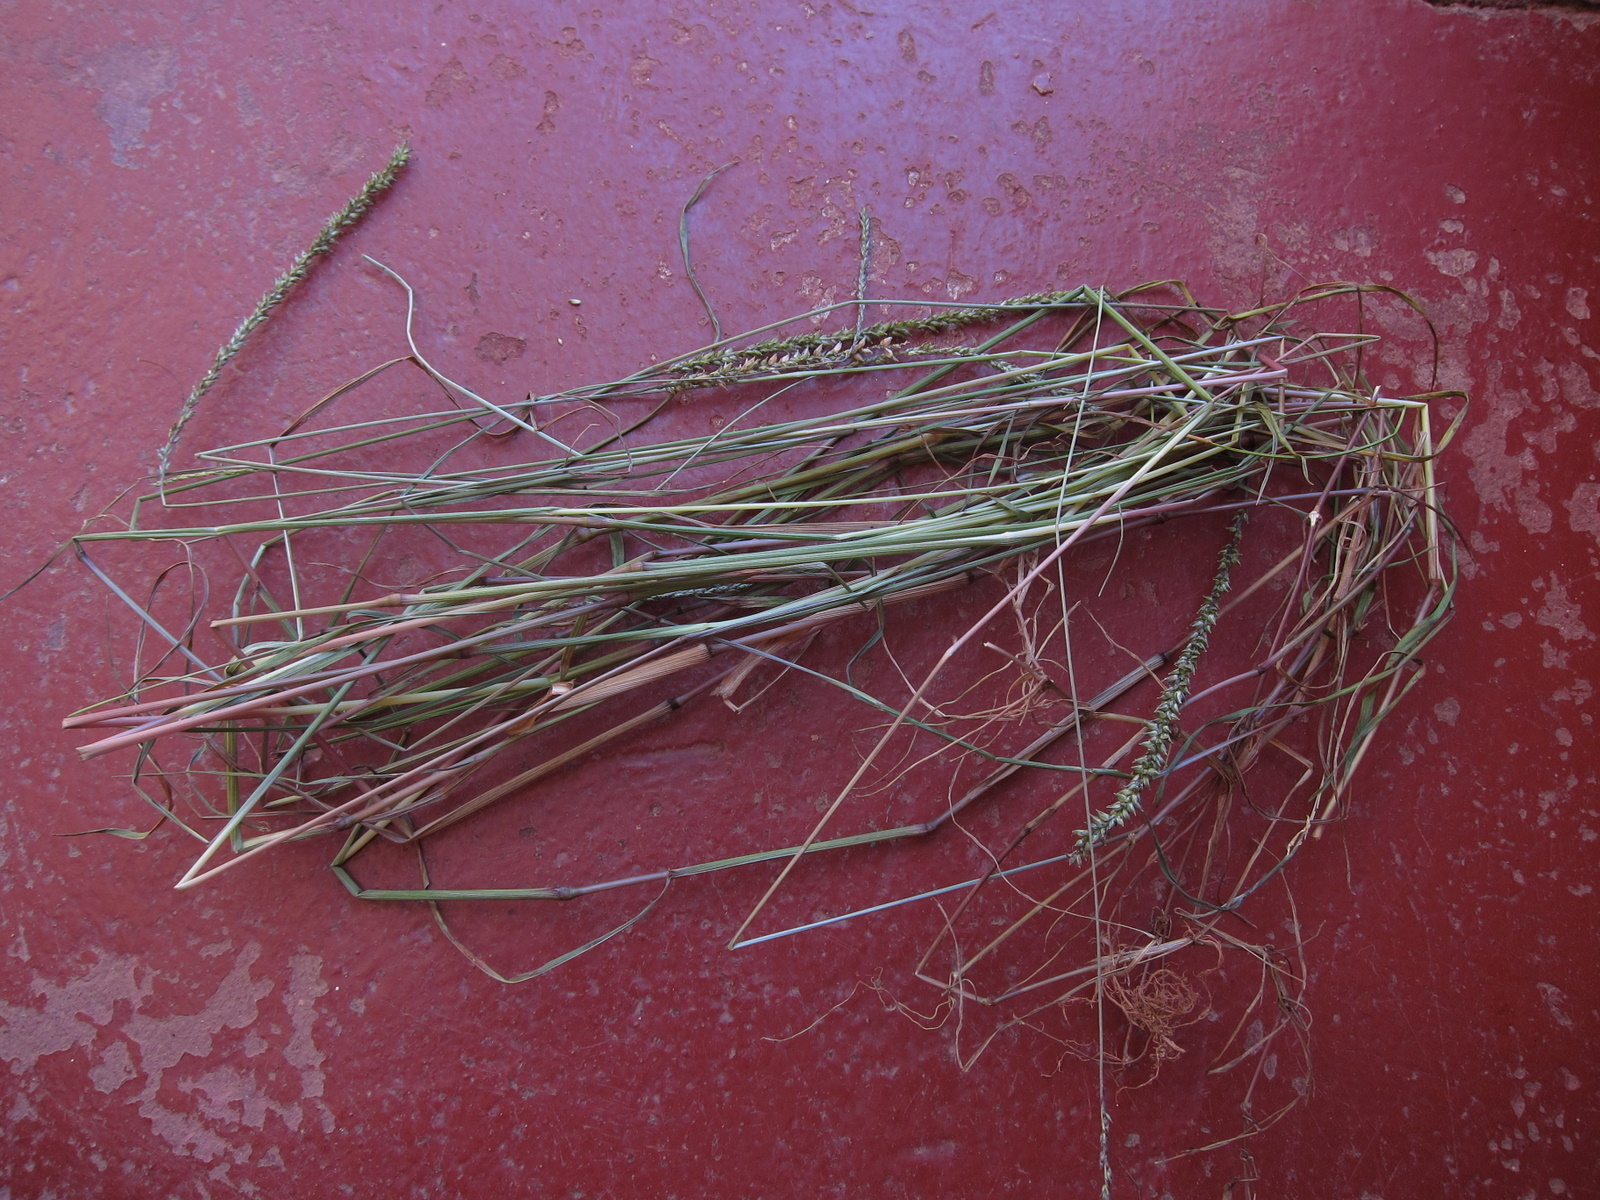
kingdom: Plantae
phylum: Tracheophyta
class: Liliopsida
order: Poales
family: Poaceae
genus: Sacciolepis
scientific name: Sacciolepis viguieri
